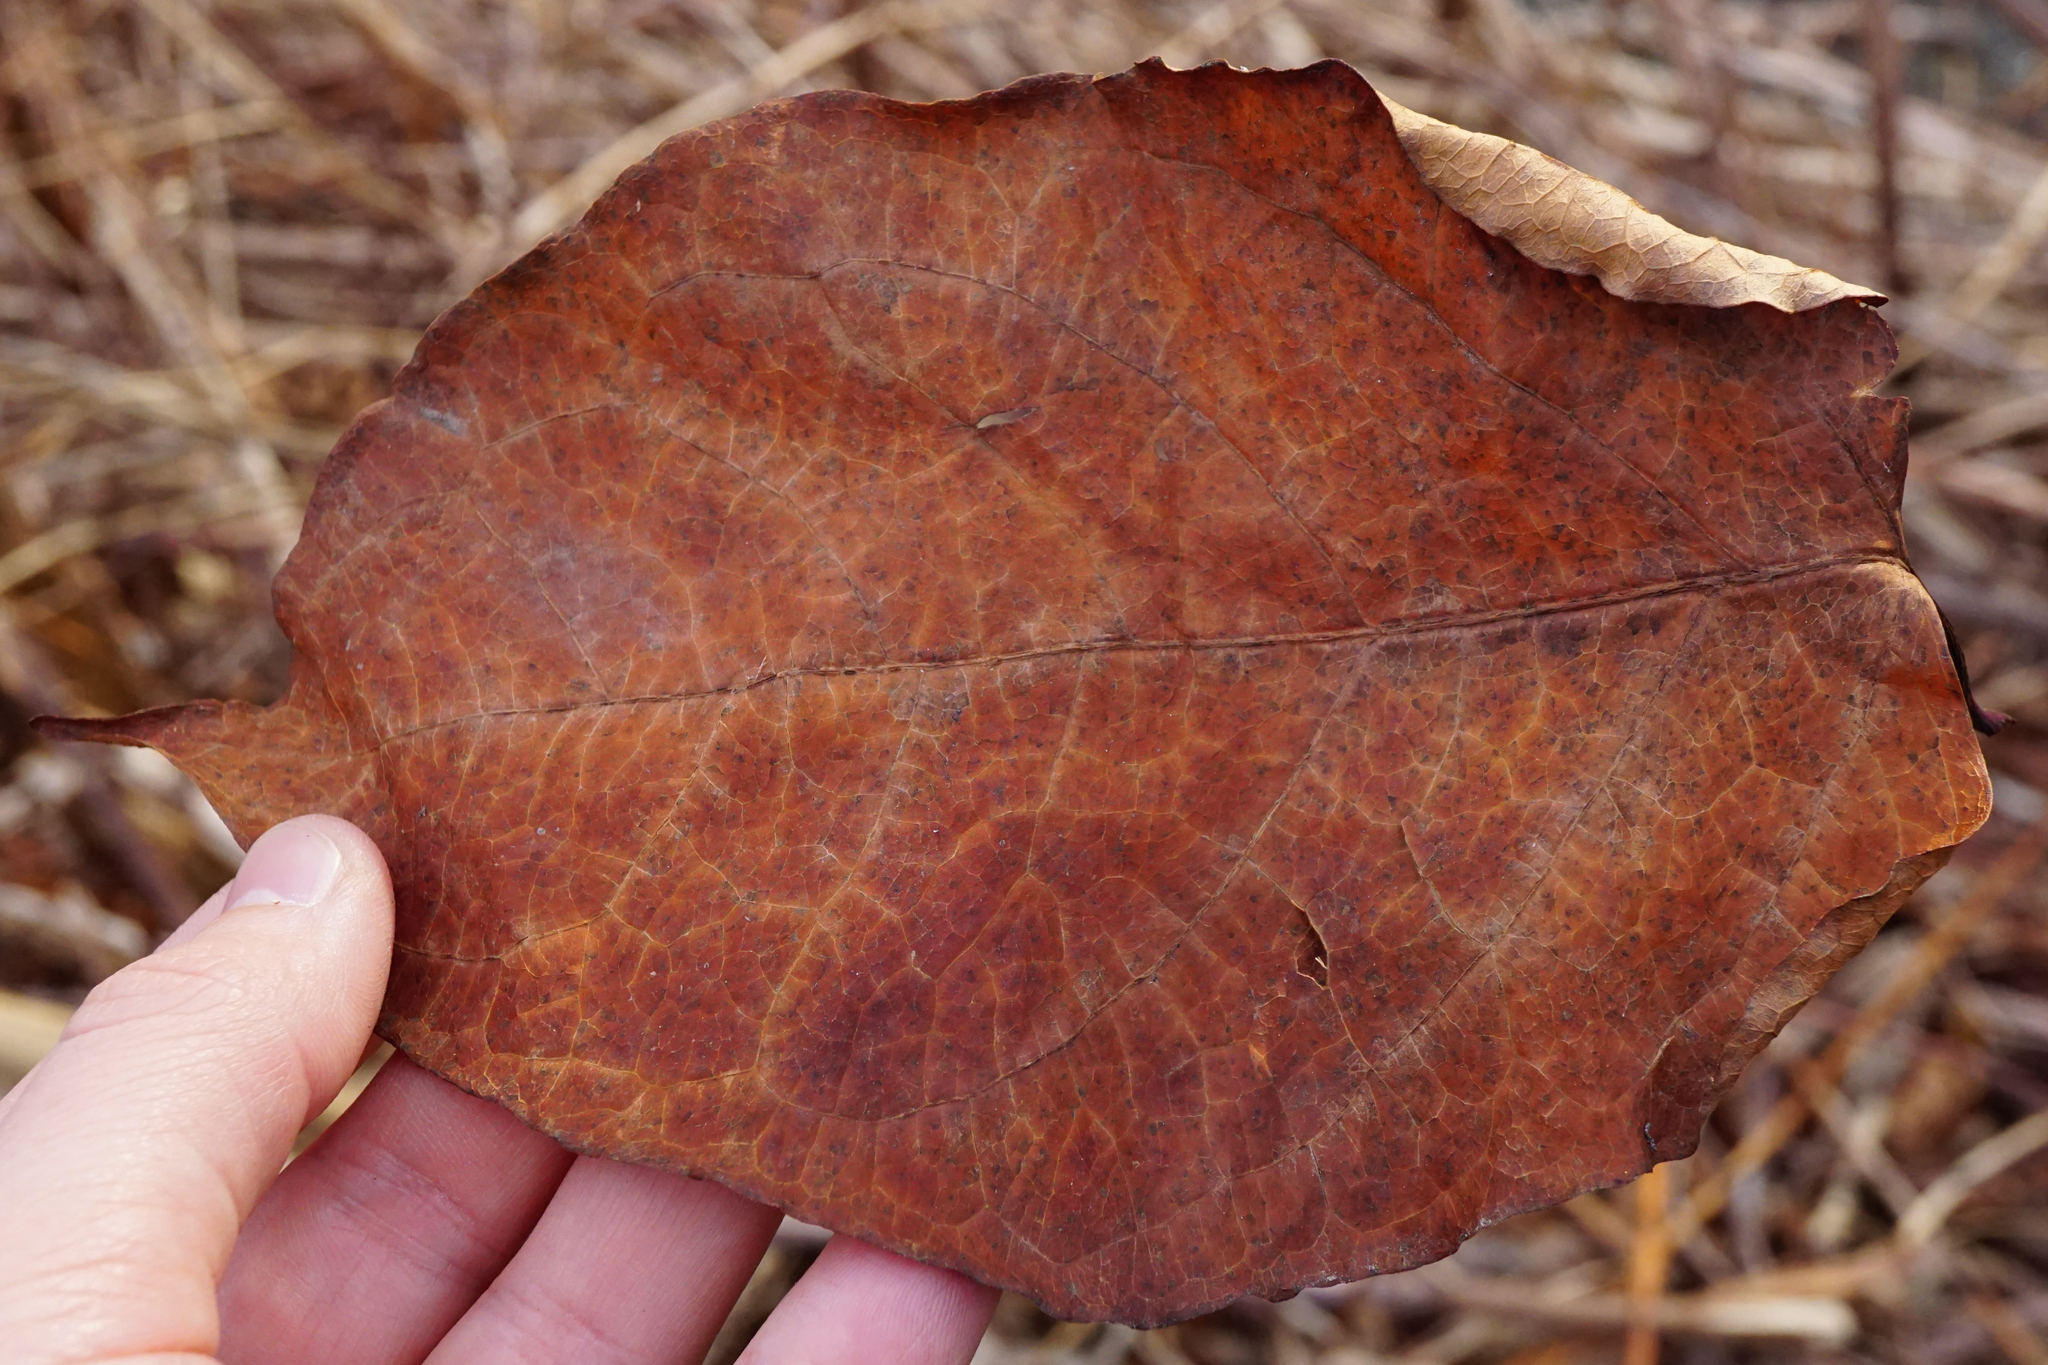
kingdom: Plantae
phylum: Tracheophyta
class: Magnoliopsida
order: Caryophyllales
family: Polygonaceae
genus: Reynoutria
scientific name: Reynoutria bohemica
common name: Bohemian knotweed
